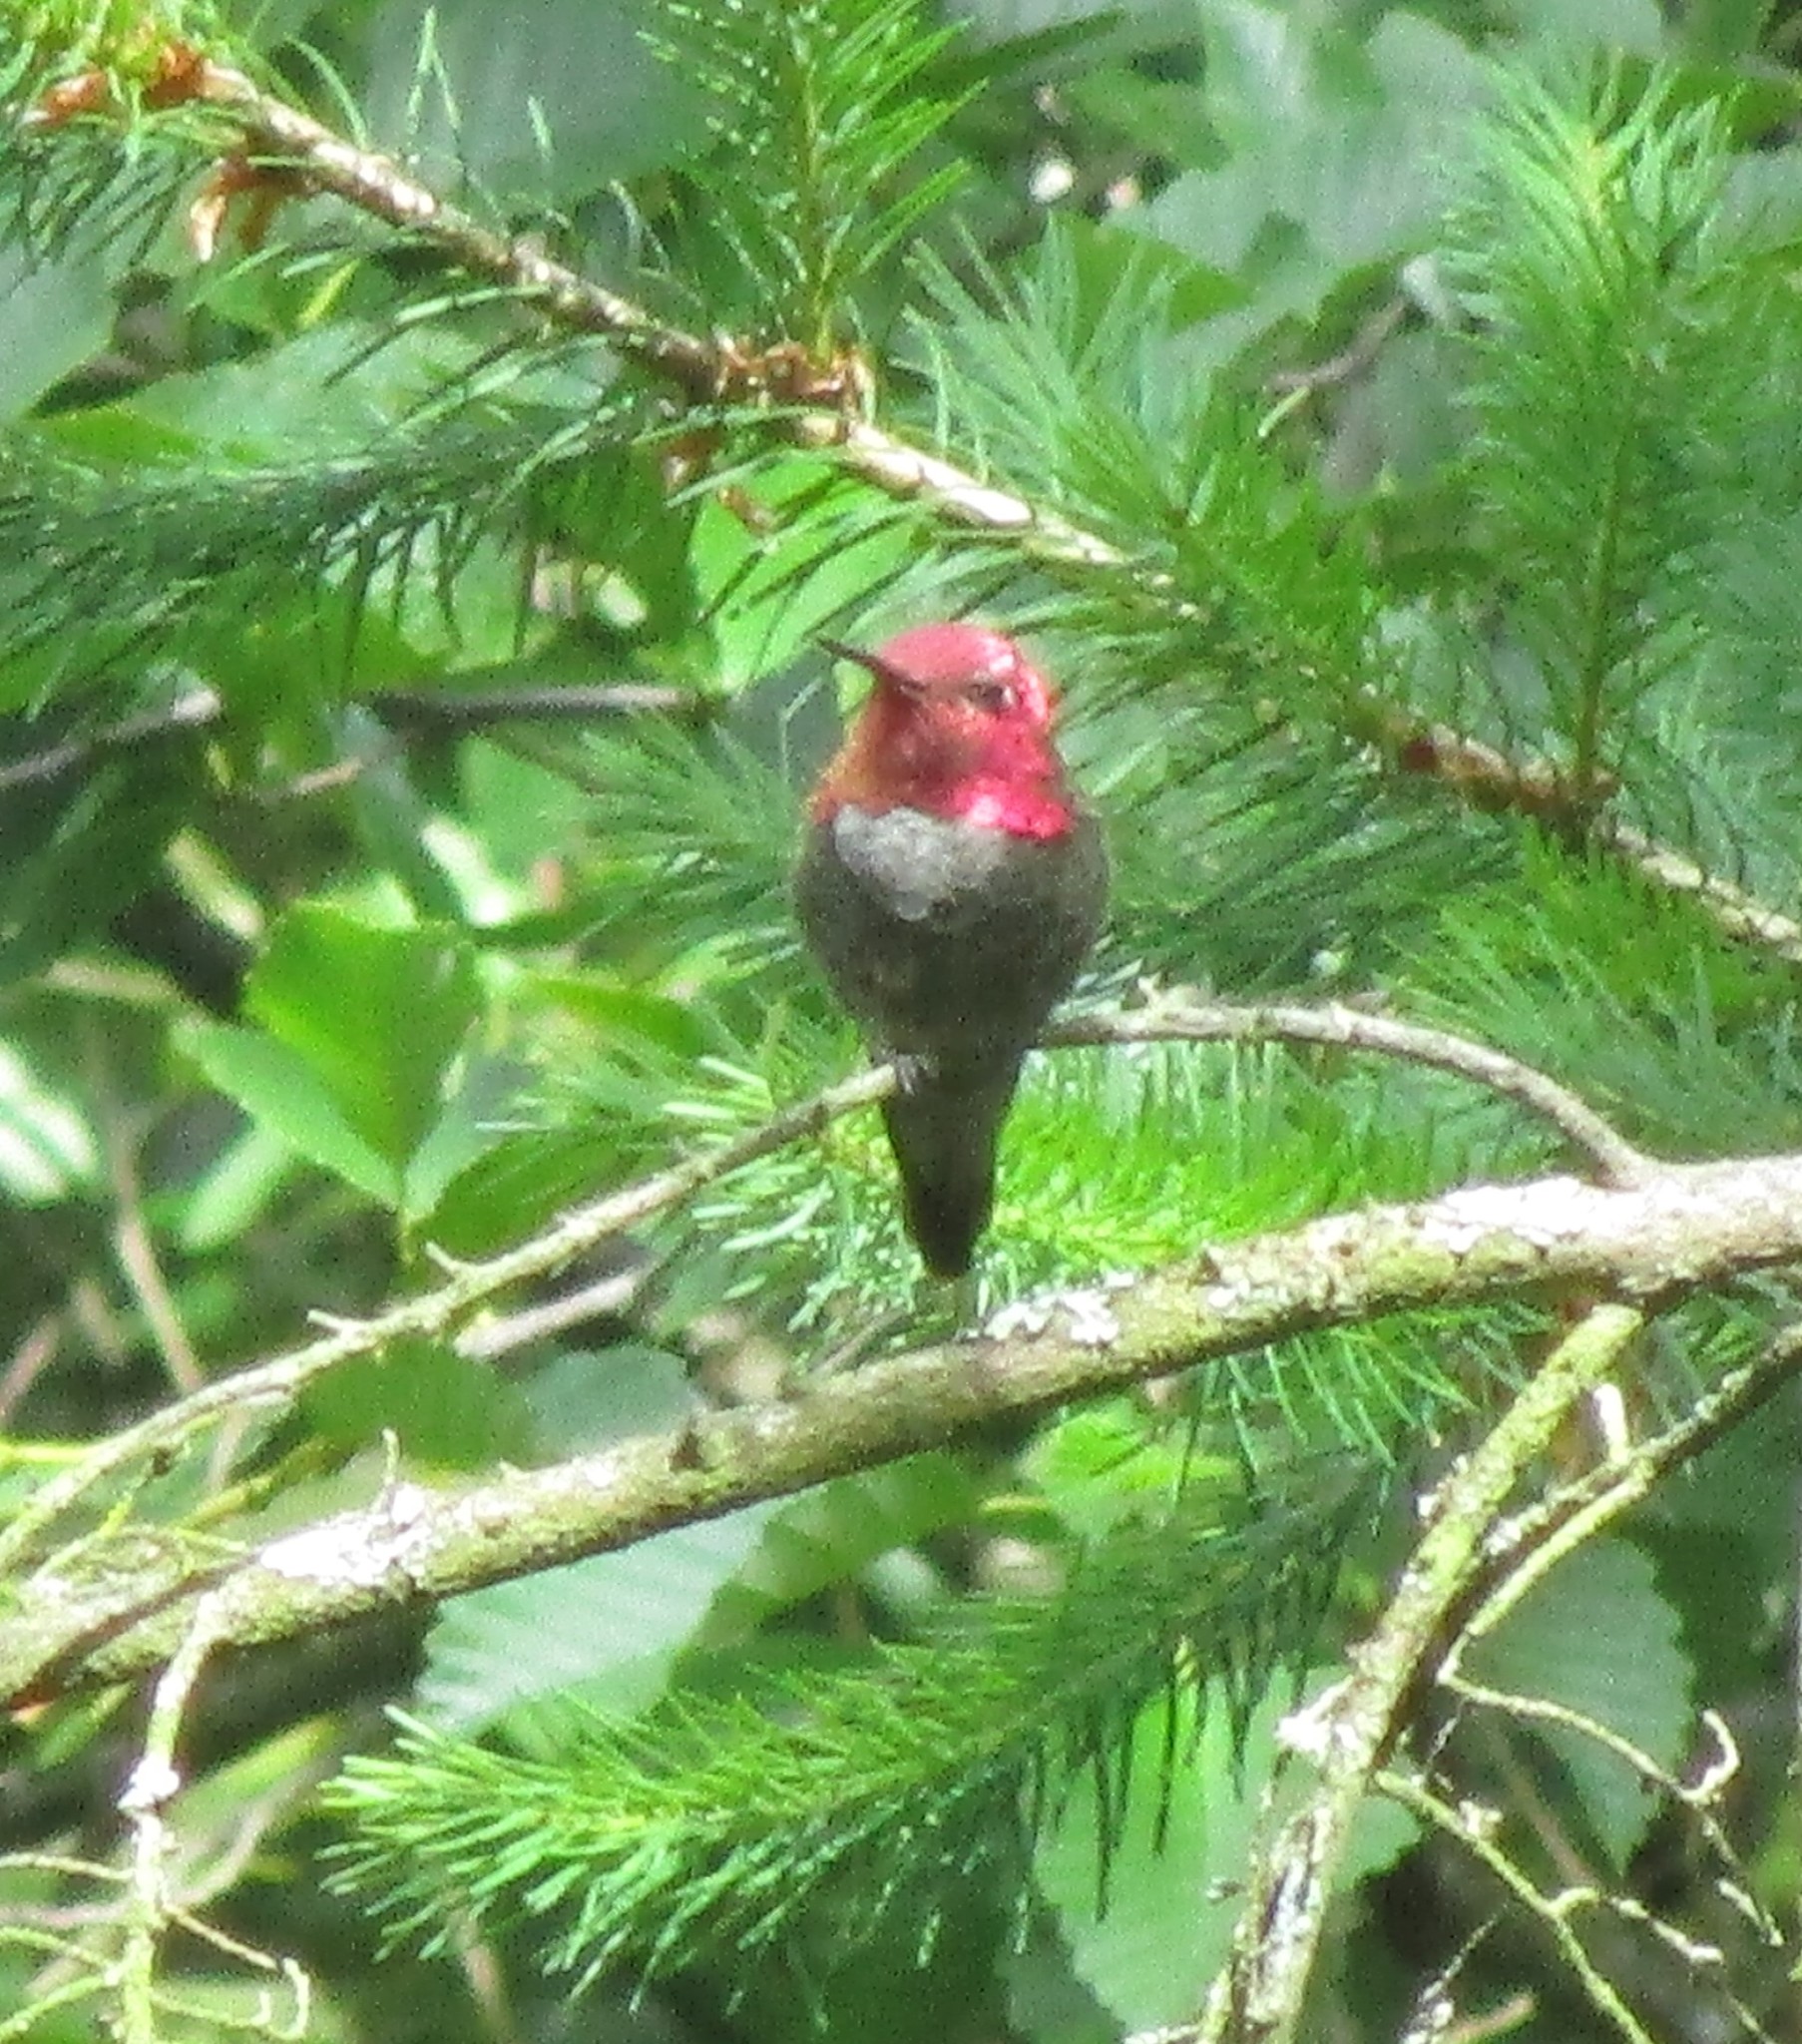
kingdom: Animalia
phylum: Chordata
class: Aves
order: Apodiformes
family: Trochilidae
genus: Calypte
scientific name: Calypte anna
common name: Anna's hummingbird
